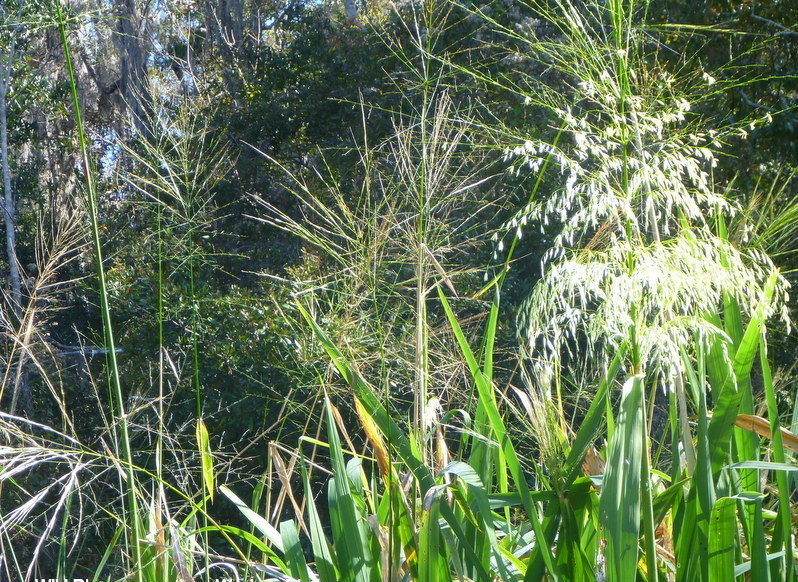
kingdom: Plantae
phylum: Tracheophyta
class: Liliopsida
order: Poales
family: Poaceae
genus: Zizania
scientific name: Zizania aquatica
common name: Annual wildrice
